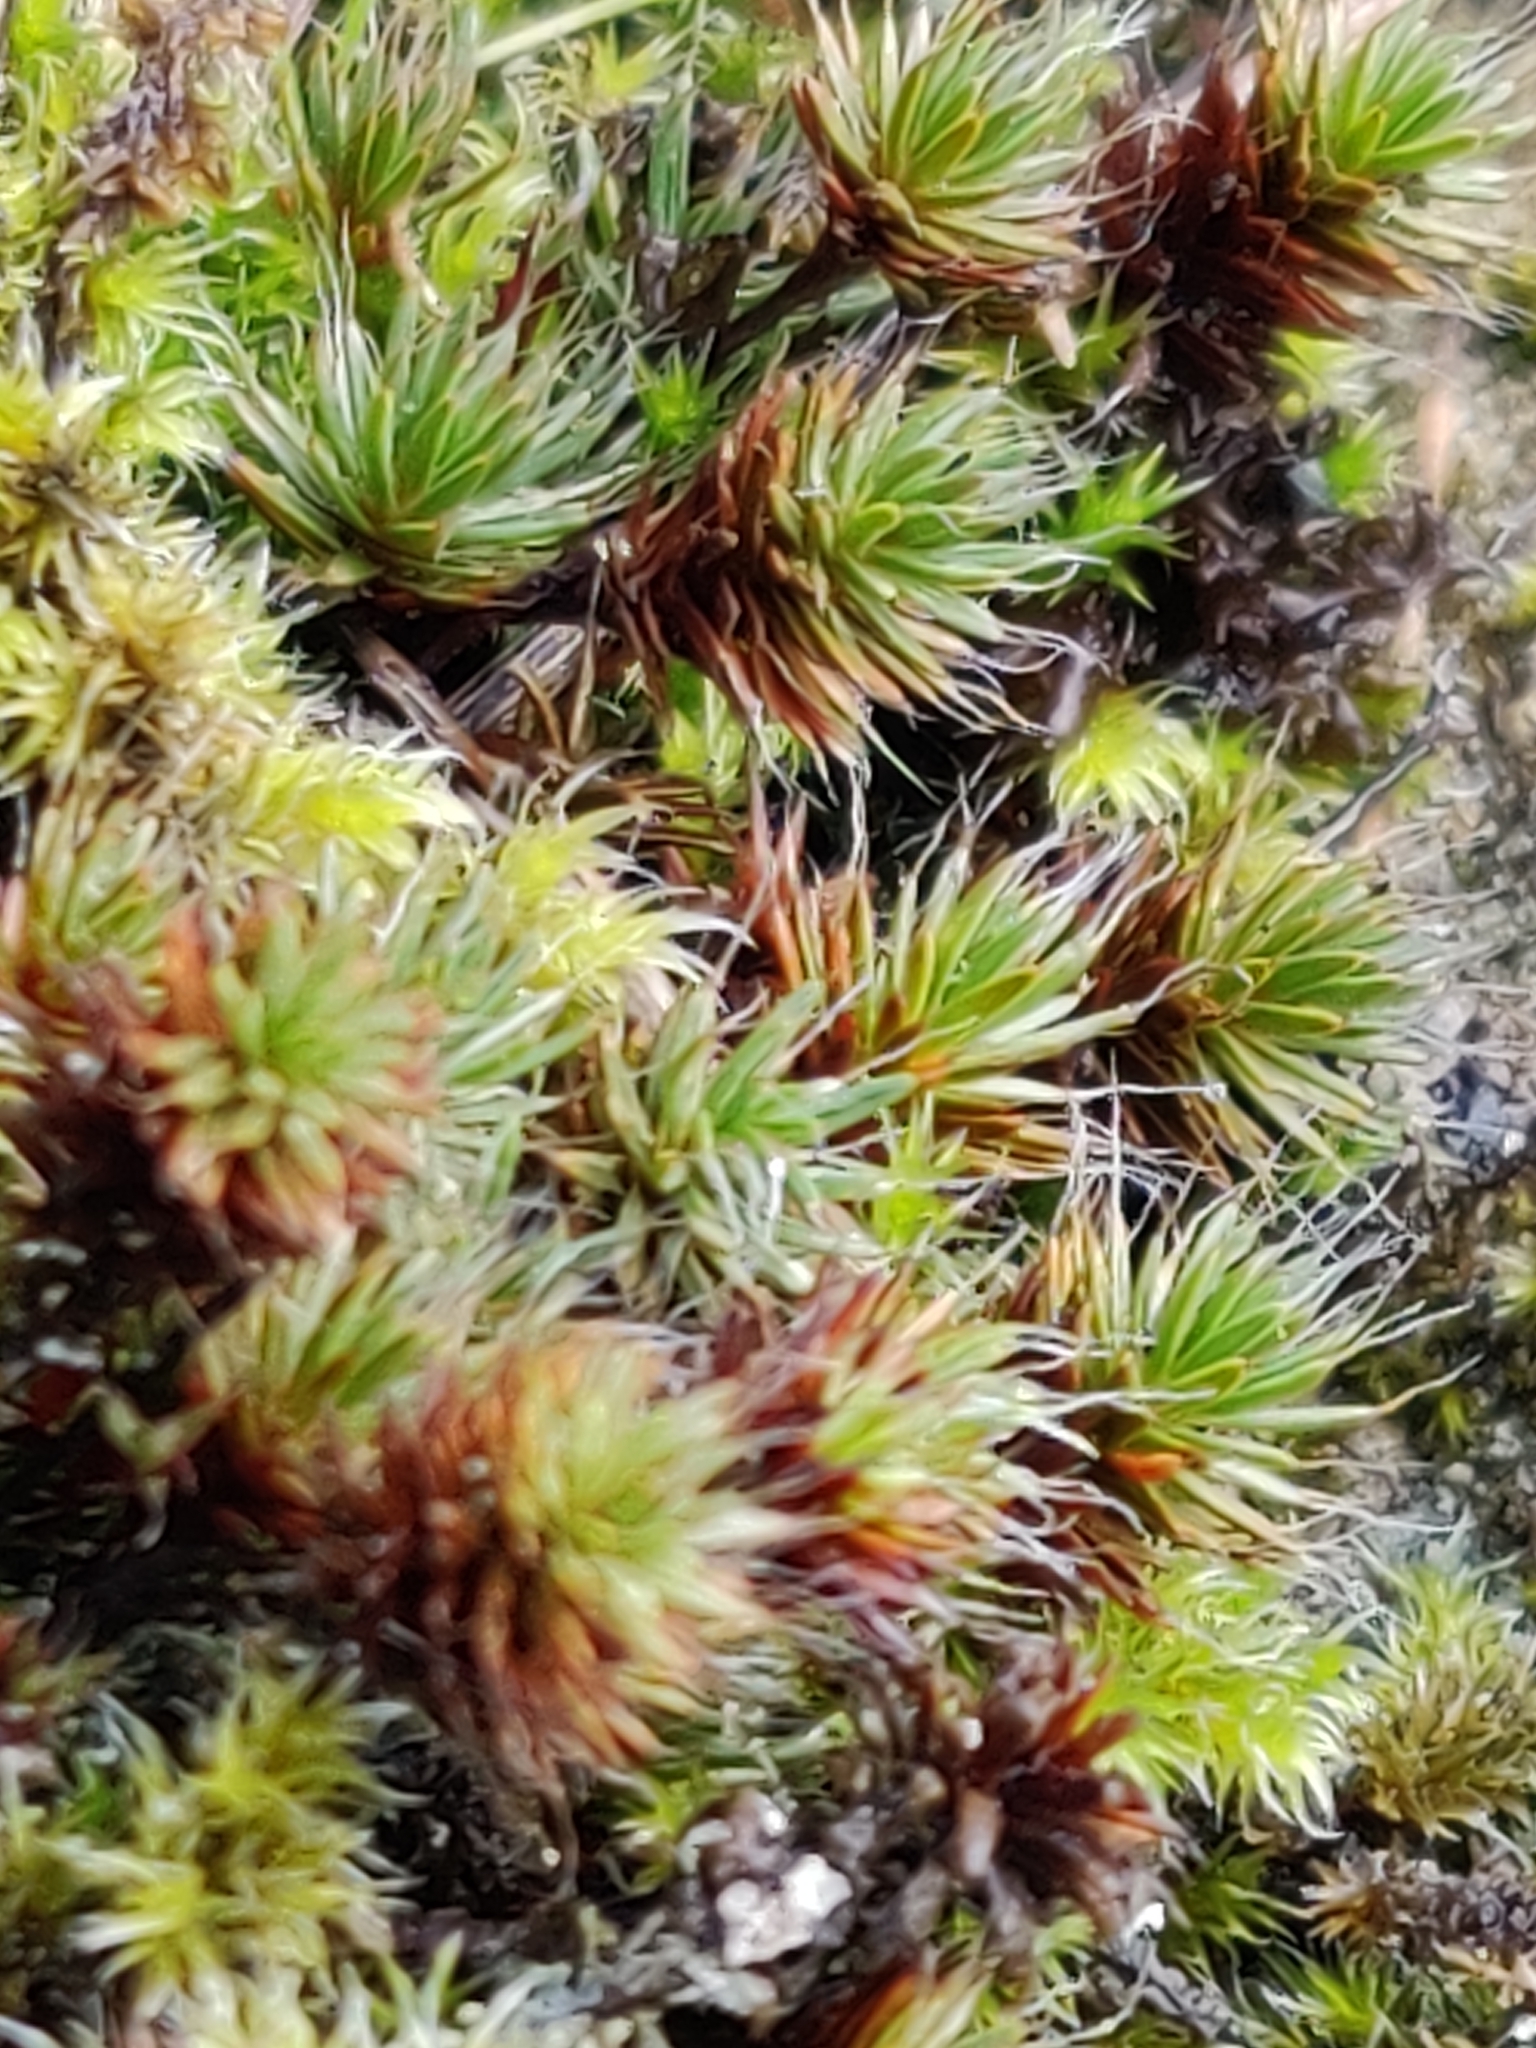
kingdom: Plantae
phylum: Bryophyta
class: Polytrichopsida
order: Polytrichales
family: Polytrichaceae
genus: Polytrichum
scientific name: Polytrichum piliferum
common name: Bristly haircap
